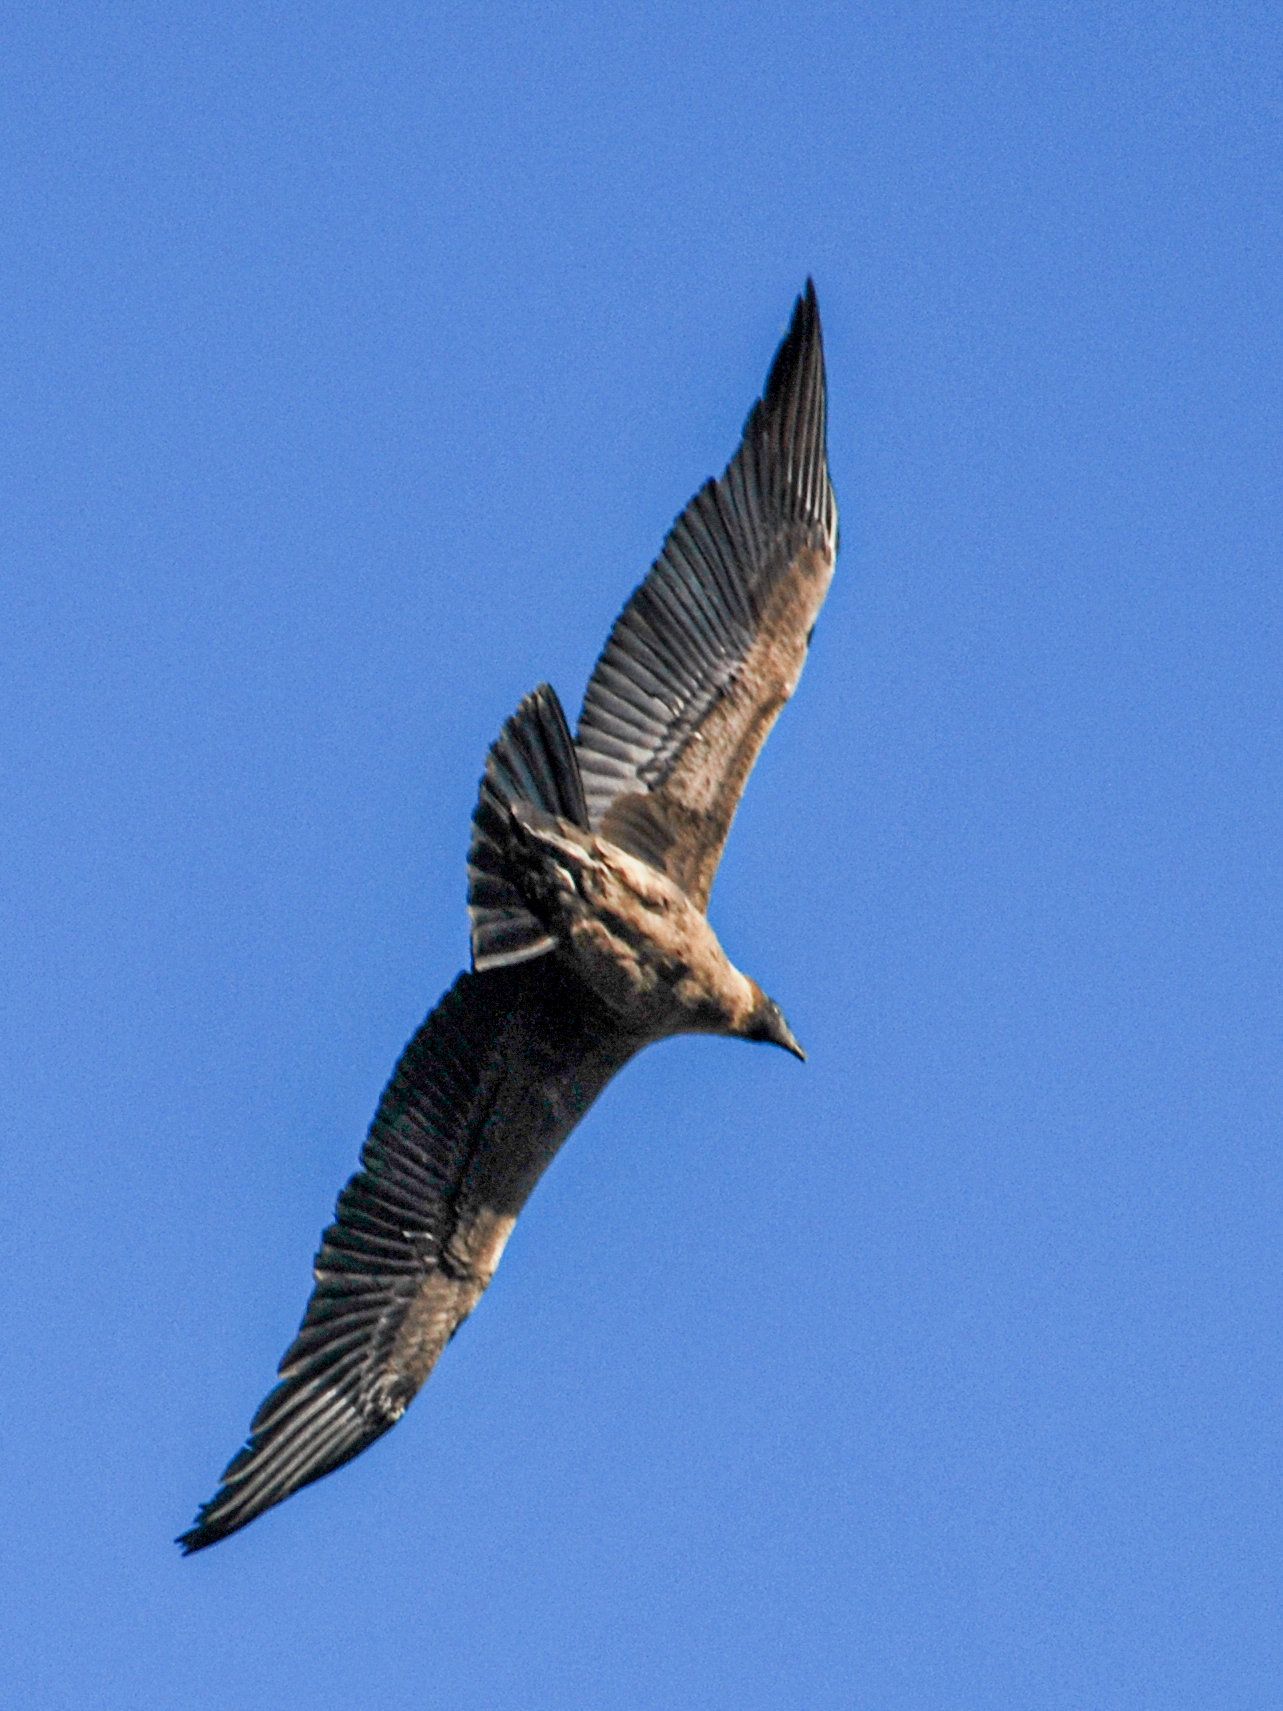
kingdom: Animalia
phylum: Chordata
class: Aves
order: Accipitriformes
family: Cathartidae
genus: Vultur
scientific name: Vultur gryphus
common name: Andean condor
